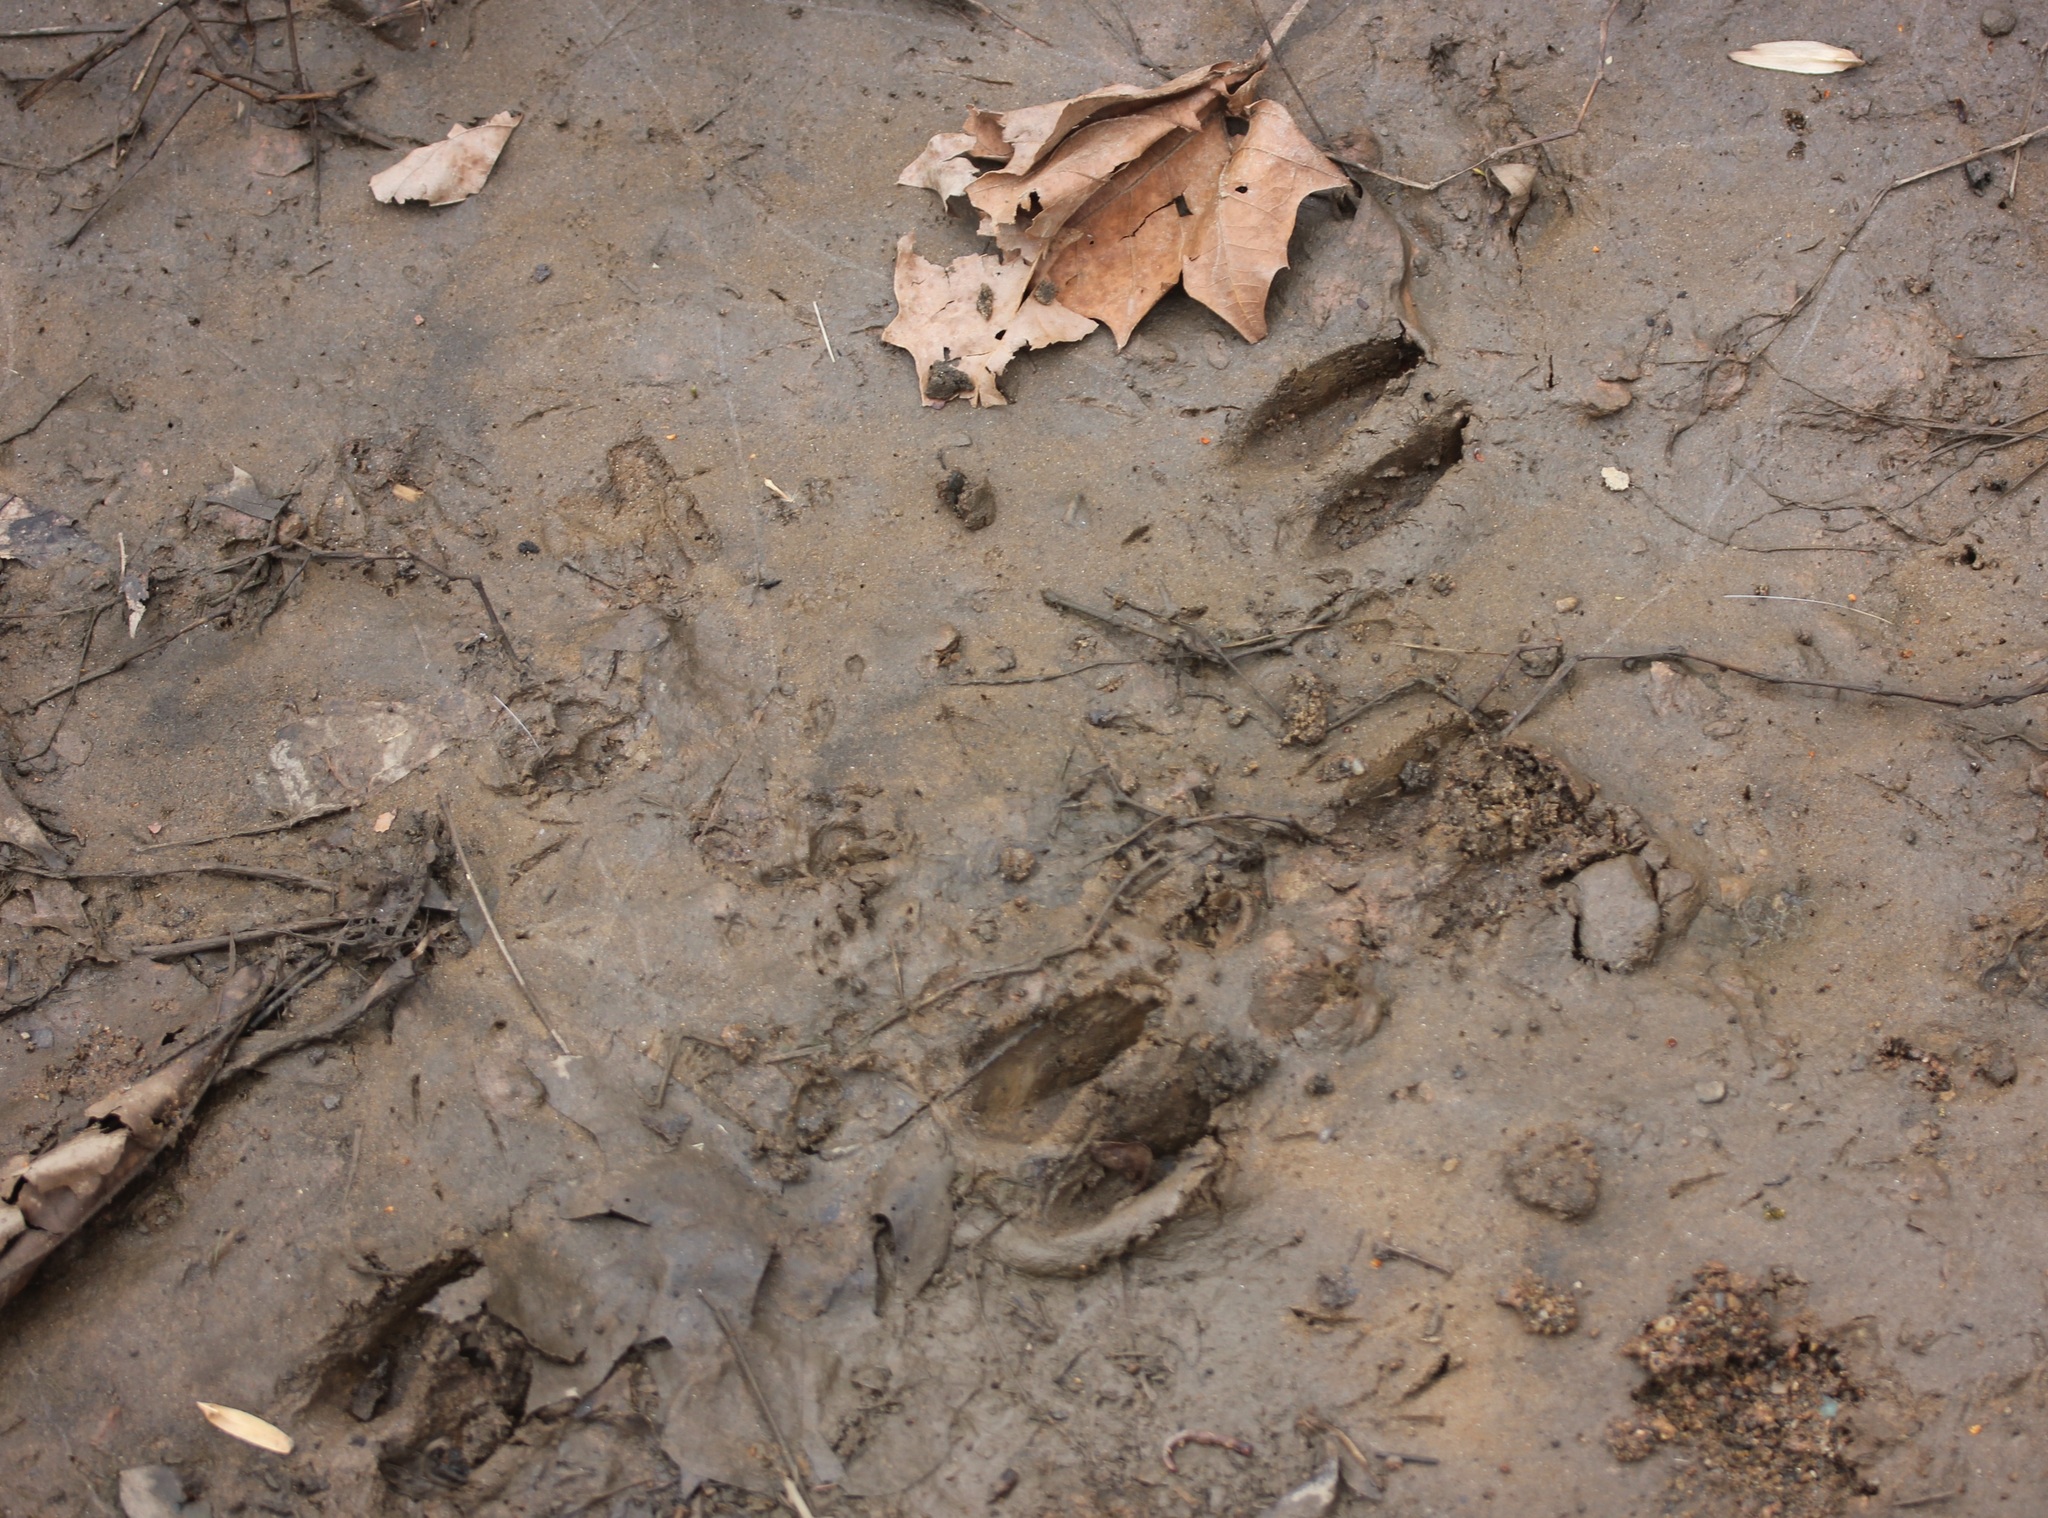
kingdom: Animalia
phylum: Chordata
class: Mammalia
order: Artiodactyla
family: Cervidae
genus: Odocoileus
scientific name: Odocoileus virginianus
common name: White-tailed deer
